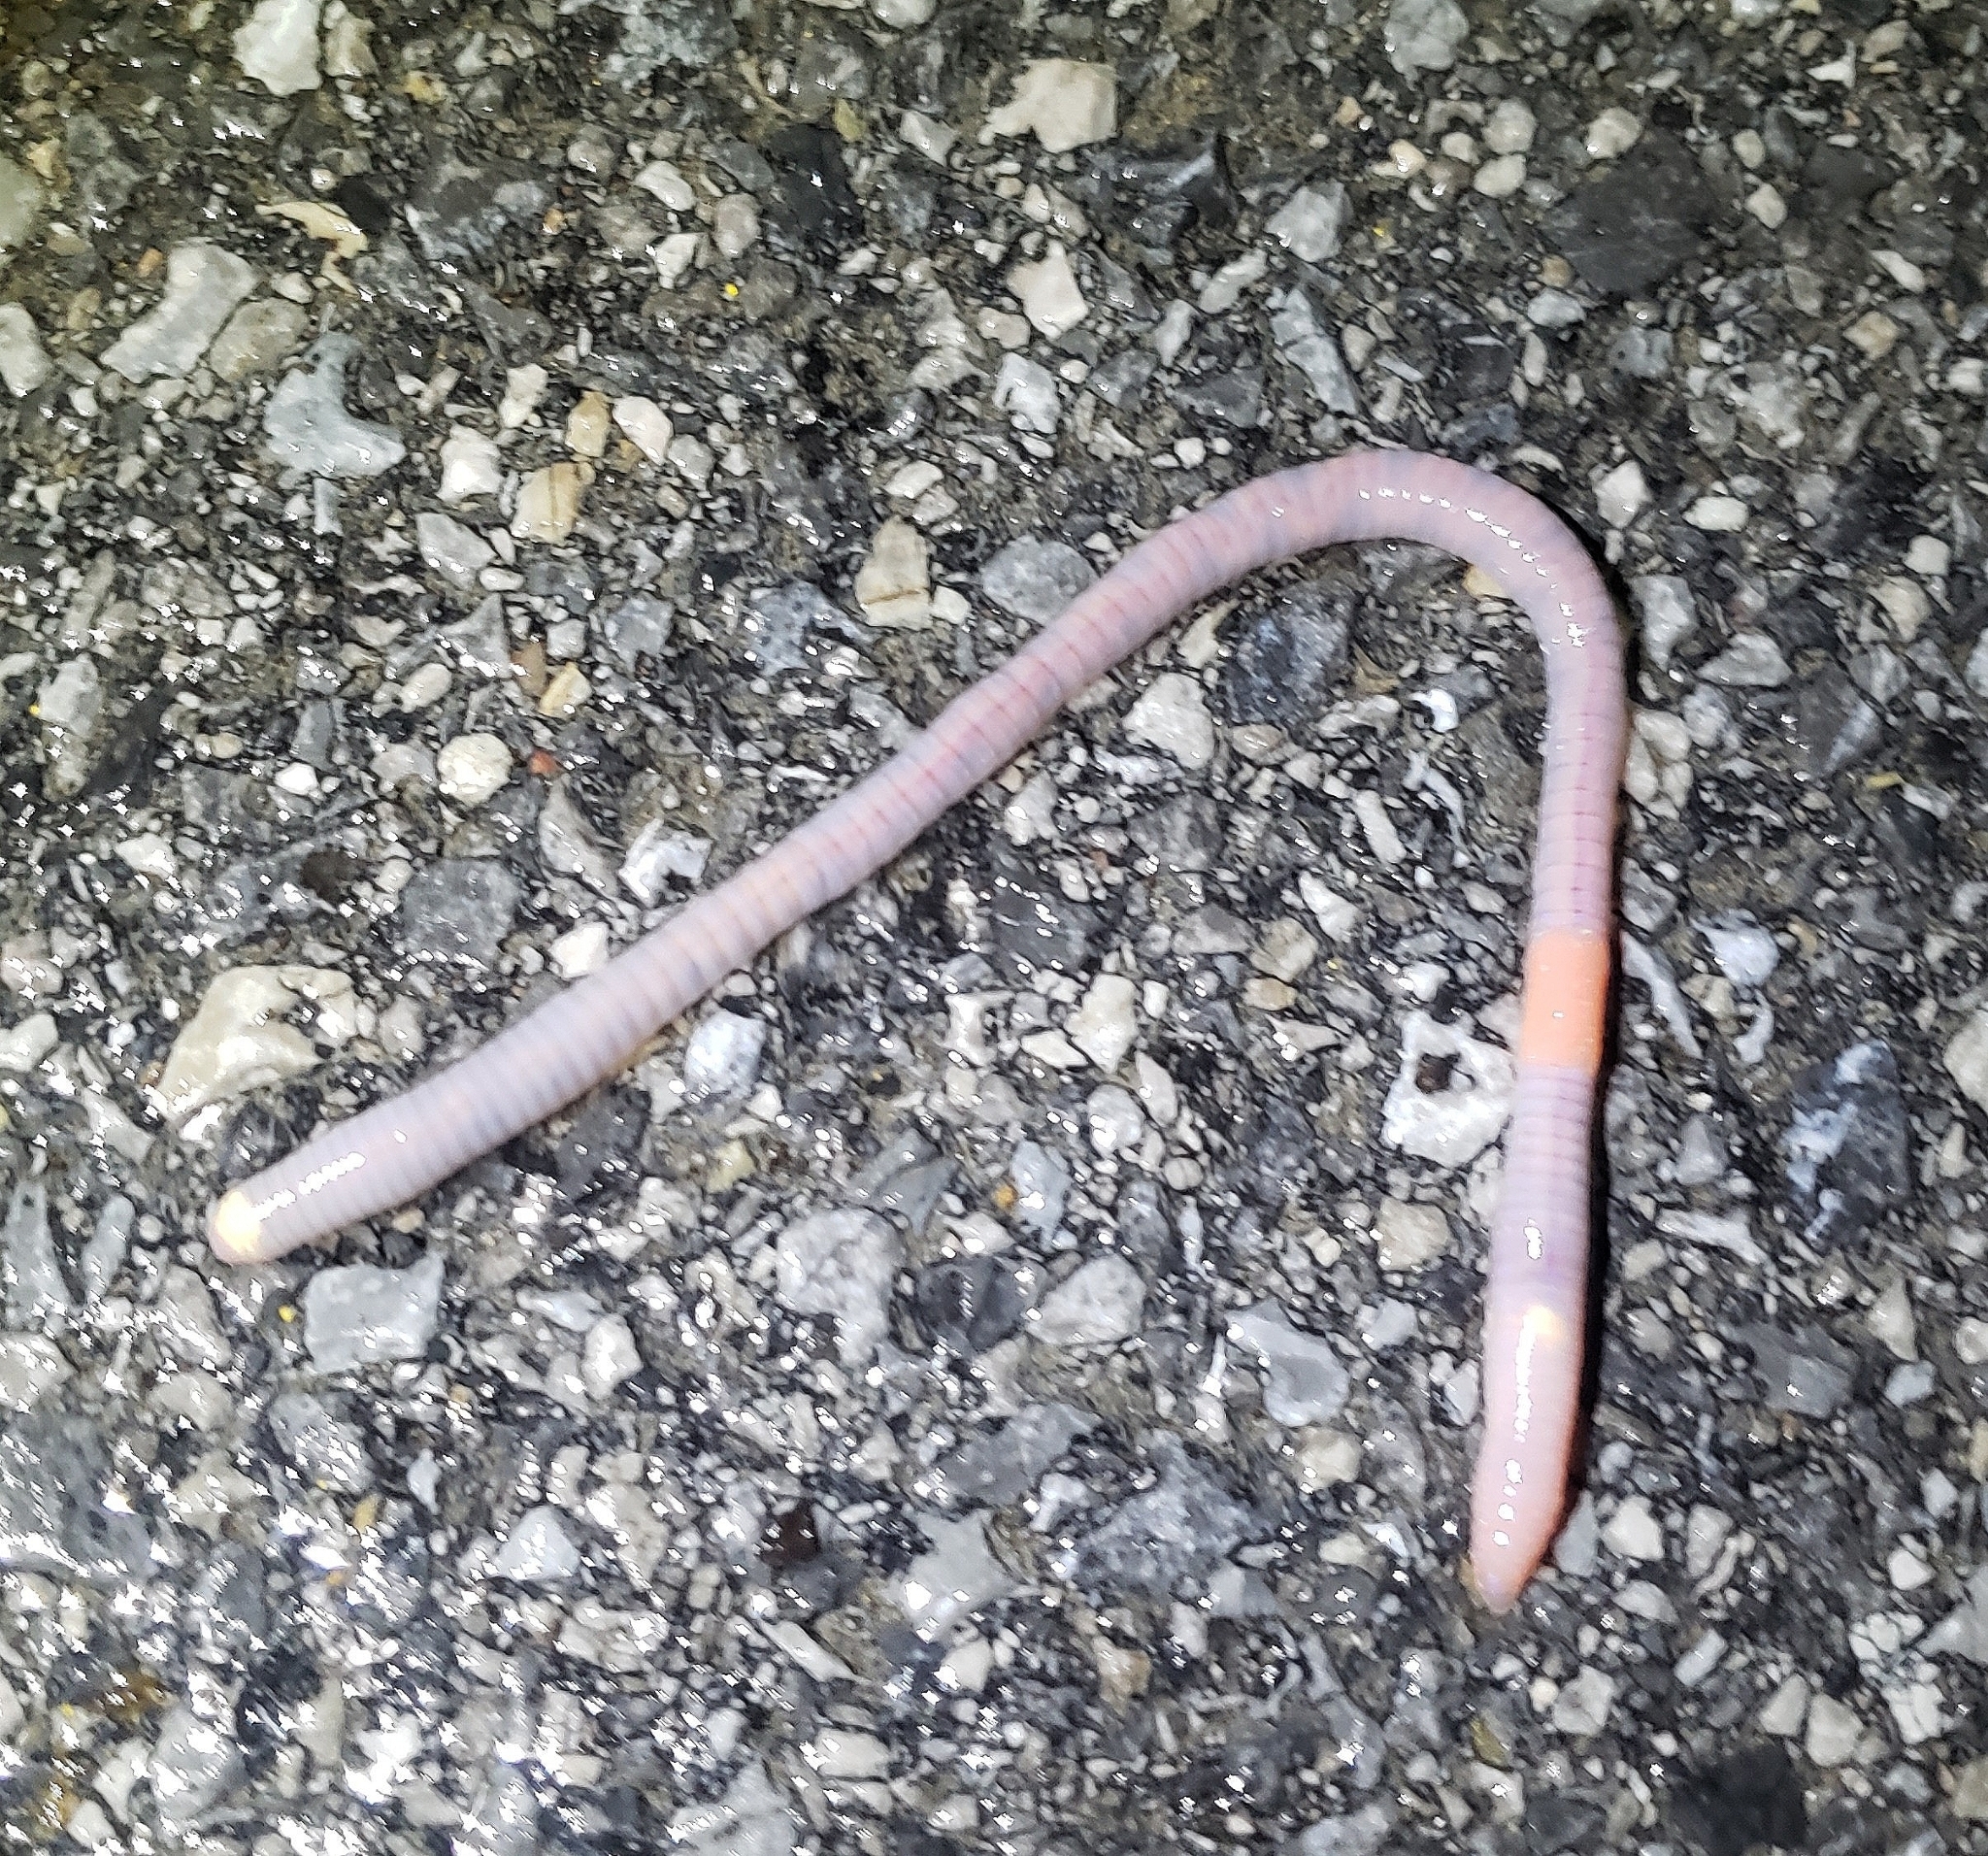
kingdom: Animalia
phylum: Annelida
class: Clitellata
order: Crassiclitellata
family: Lumbricidae
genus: Lumbricus
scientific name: Lumbricus terrestris
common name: Common earthworm
